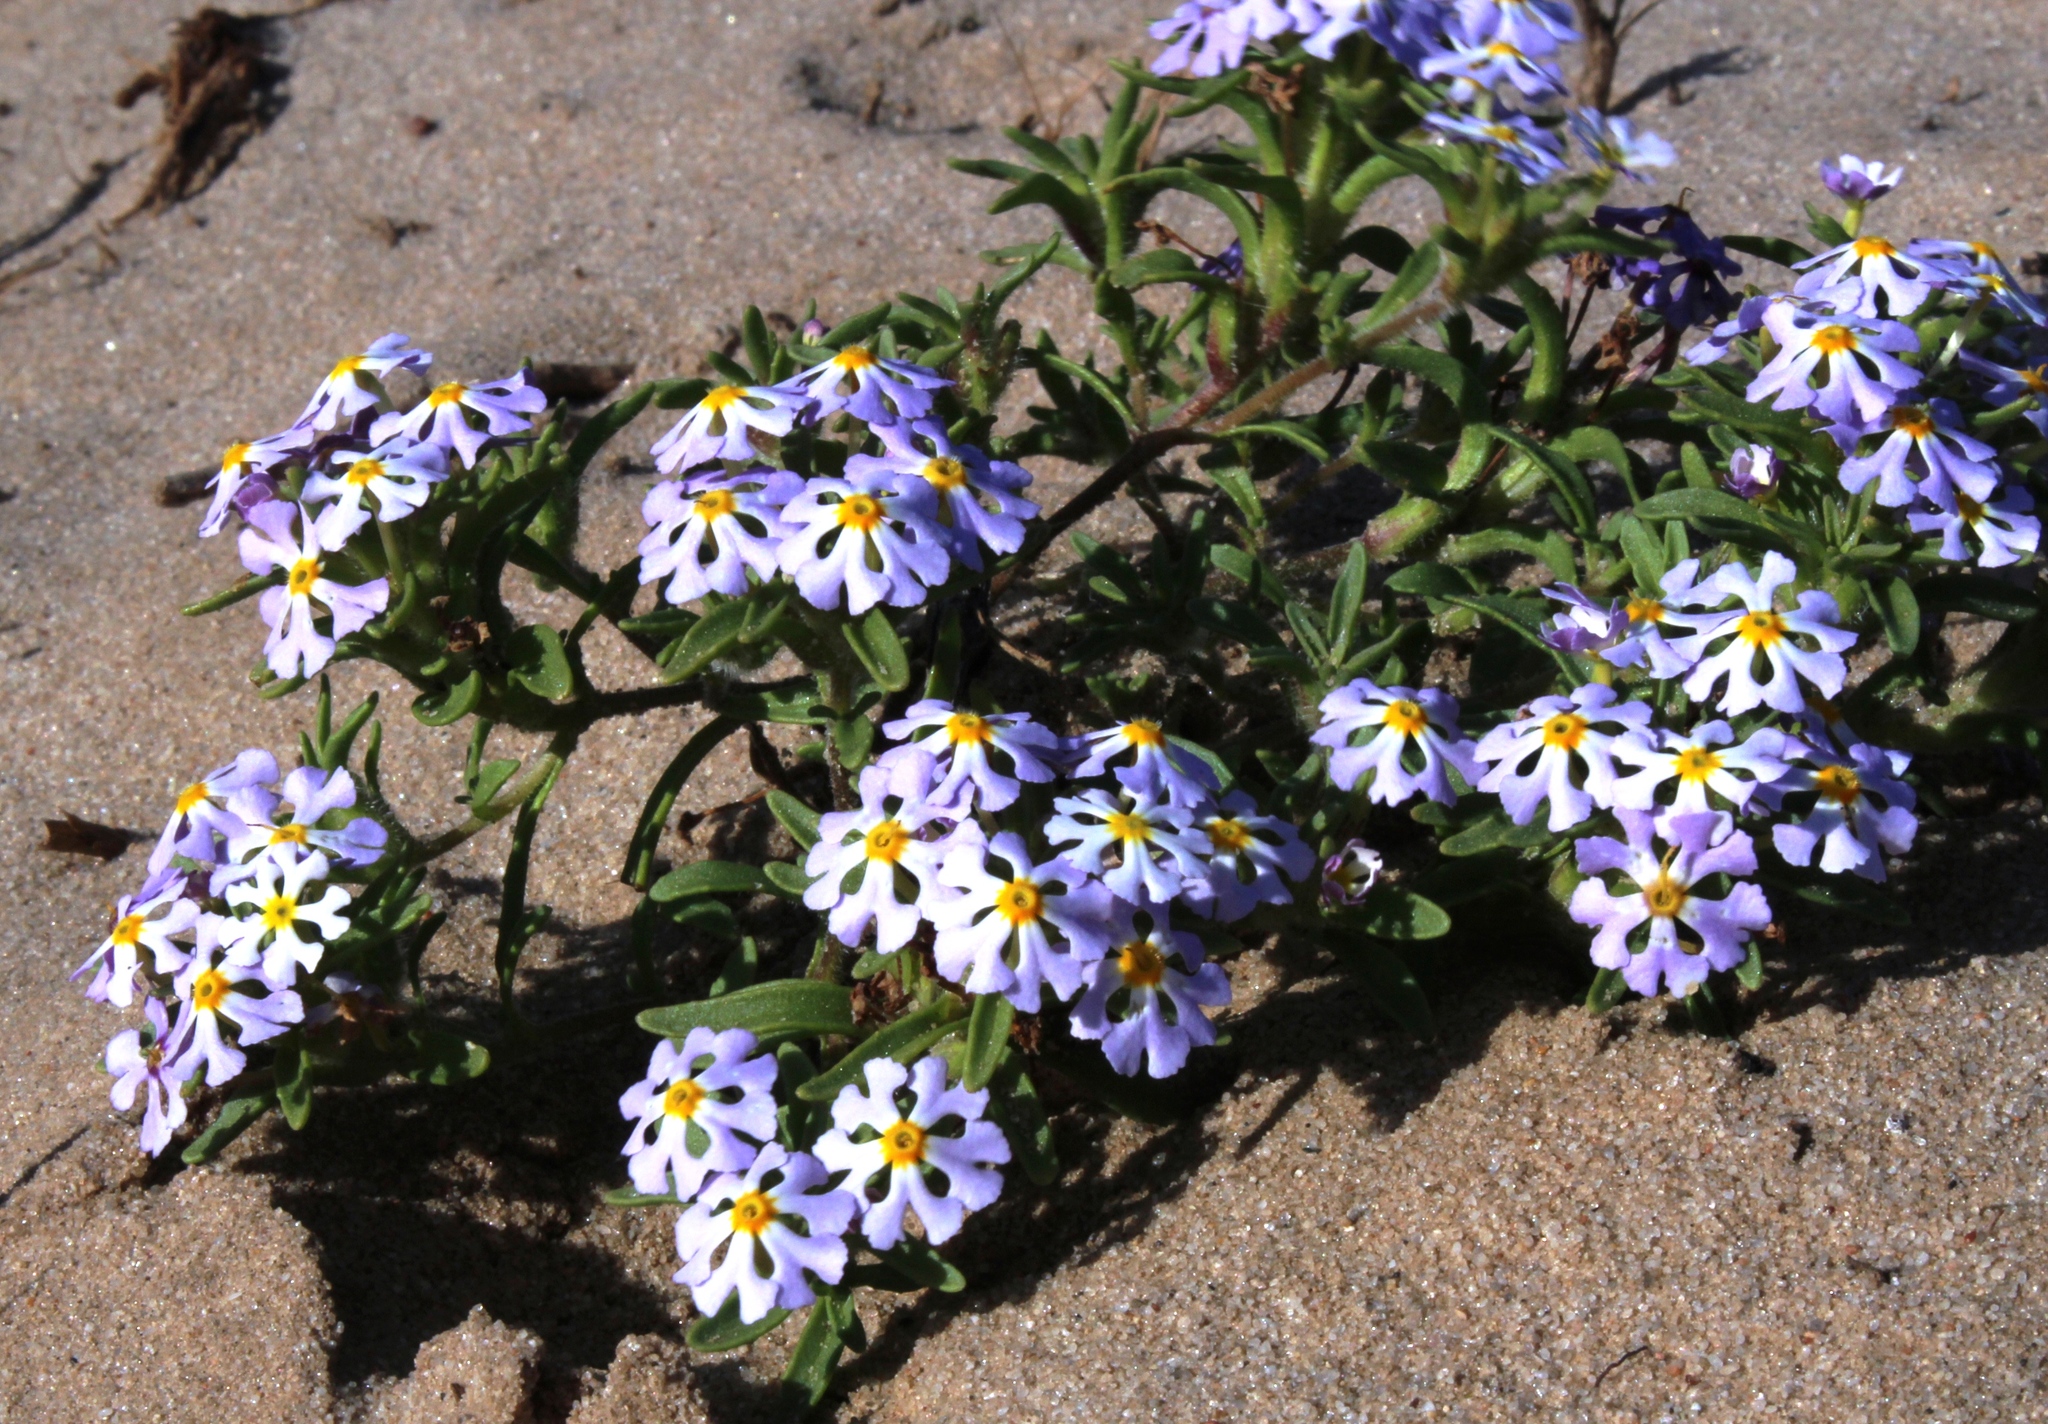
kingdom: Plantae
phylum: Tracheophyta
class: Magnoliopsida
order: Lamiales
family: Scrophulariaceae
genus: Zaluzianskya
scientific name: Zaluzianskya affinis
